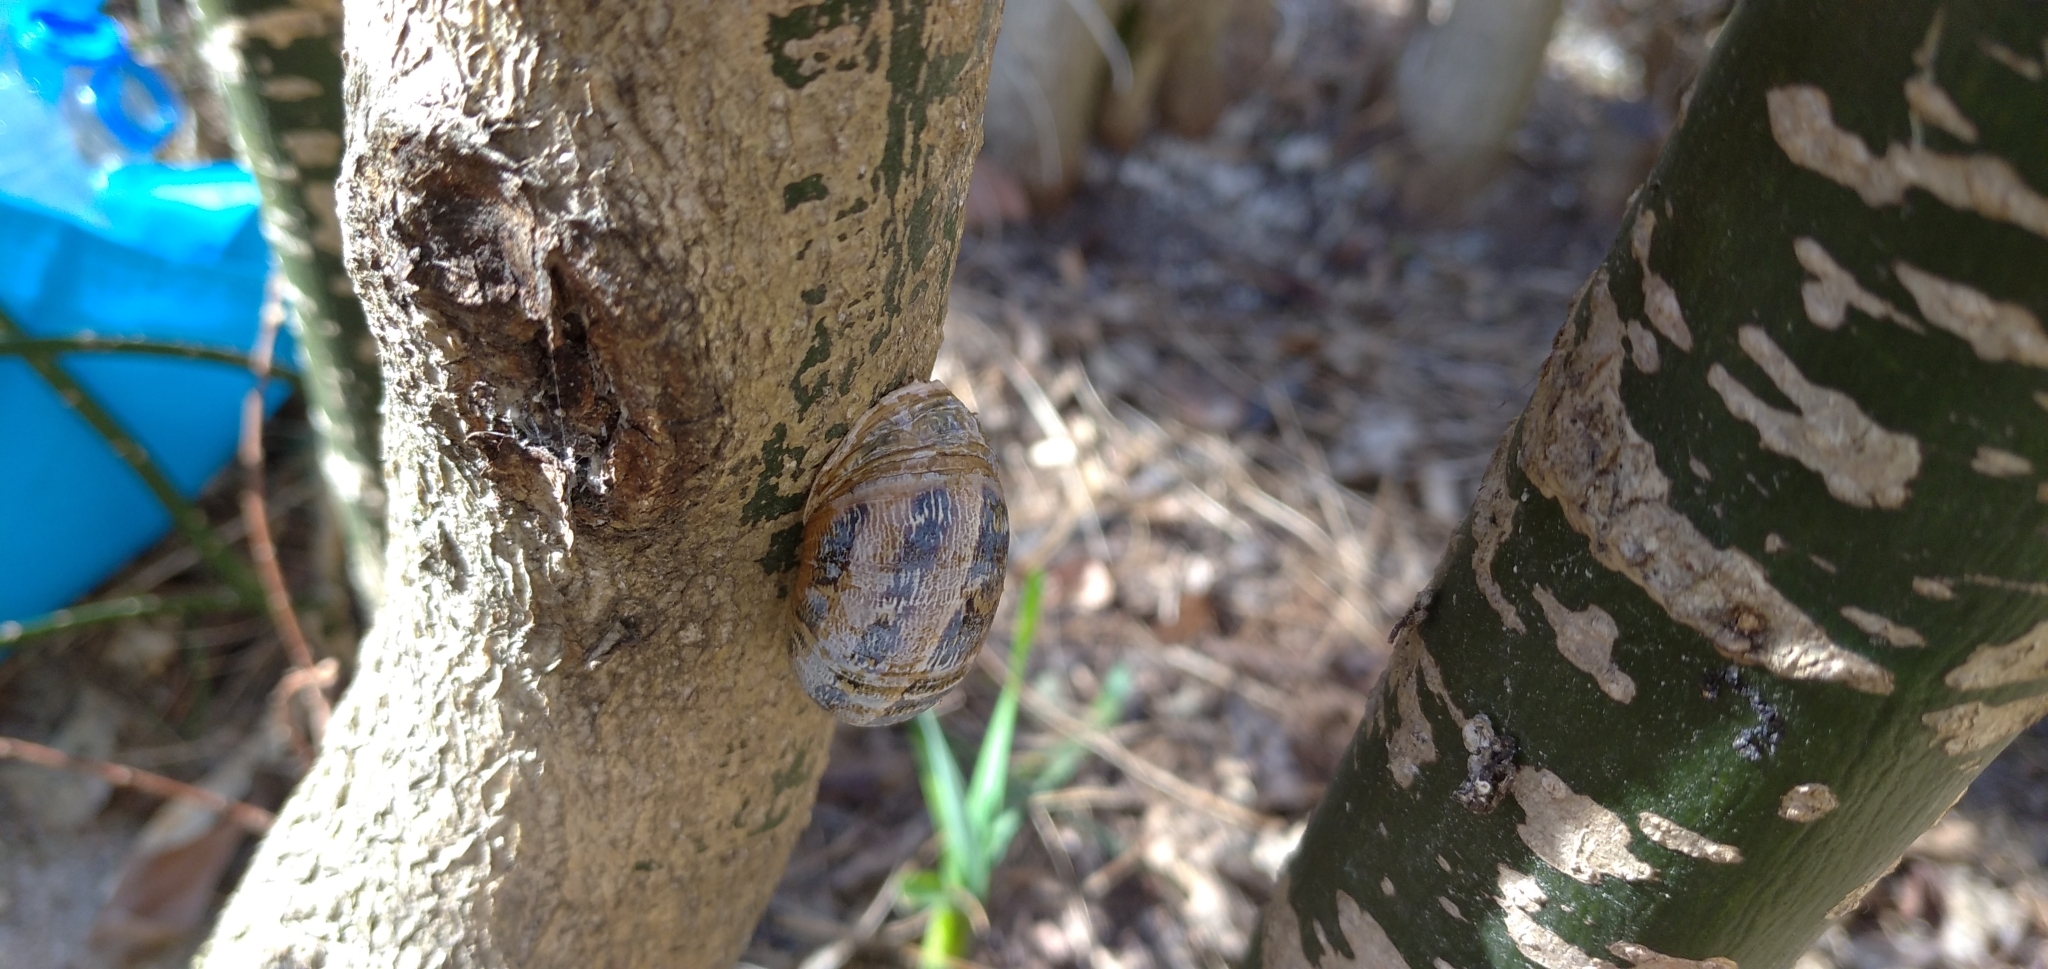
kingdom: Animalia
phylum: Mollusca
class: Gastropoda
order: Stylommatophora
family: Helicidae
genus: Cornu
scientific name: Cornu aspersum
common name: Brown garden snail
